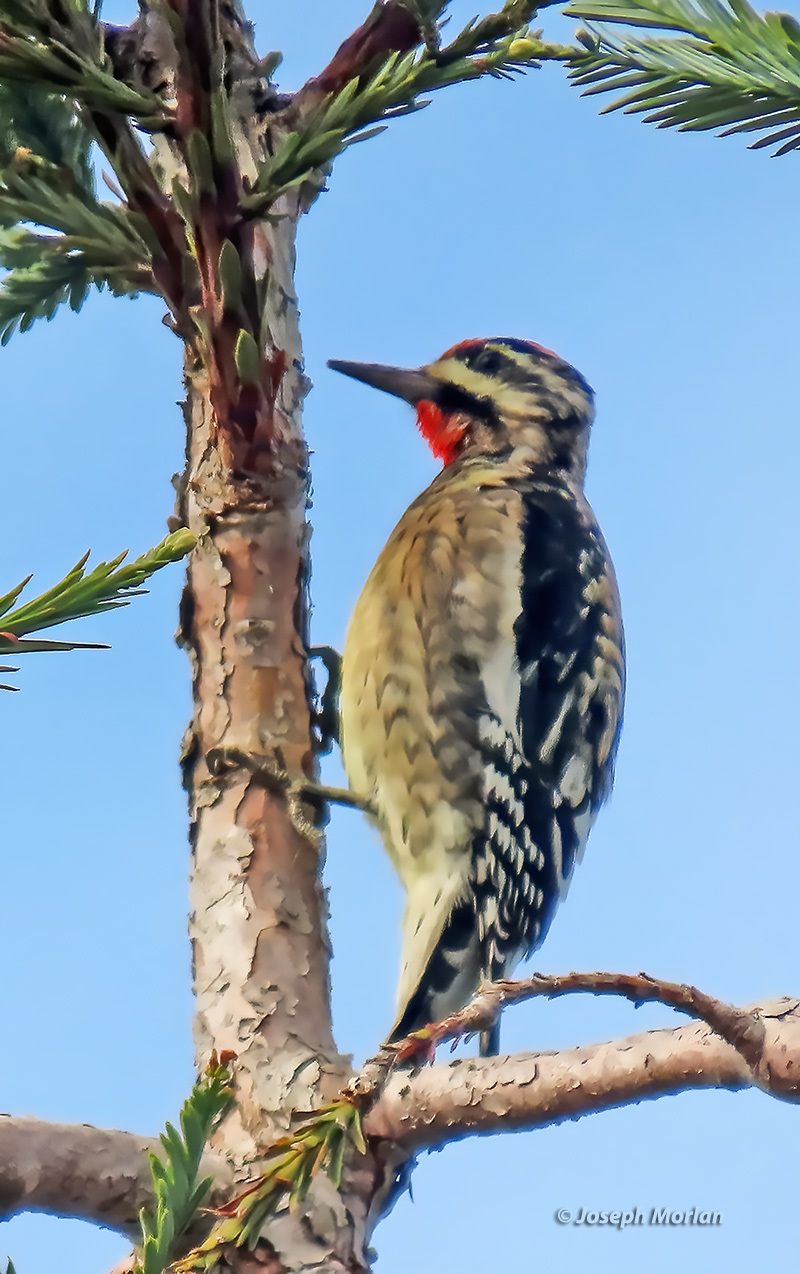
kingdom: Animalia
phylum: Chordata
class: Aves
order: Piciformes
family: Picidae
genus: Sphyrapicus
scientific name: Sphyrapicus varius
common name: Yellow-bellied sapsucker
